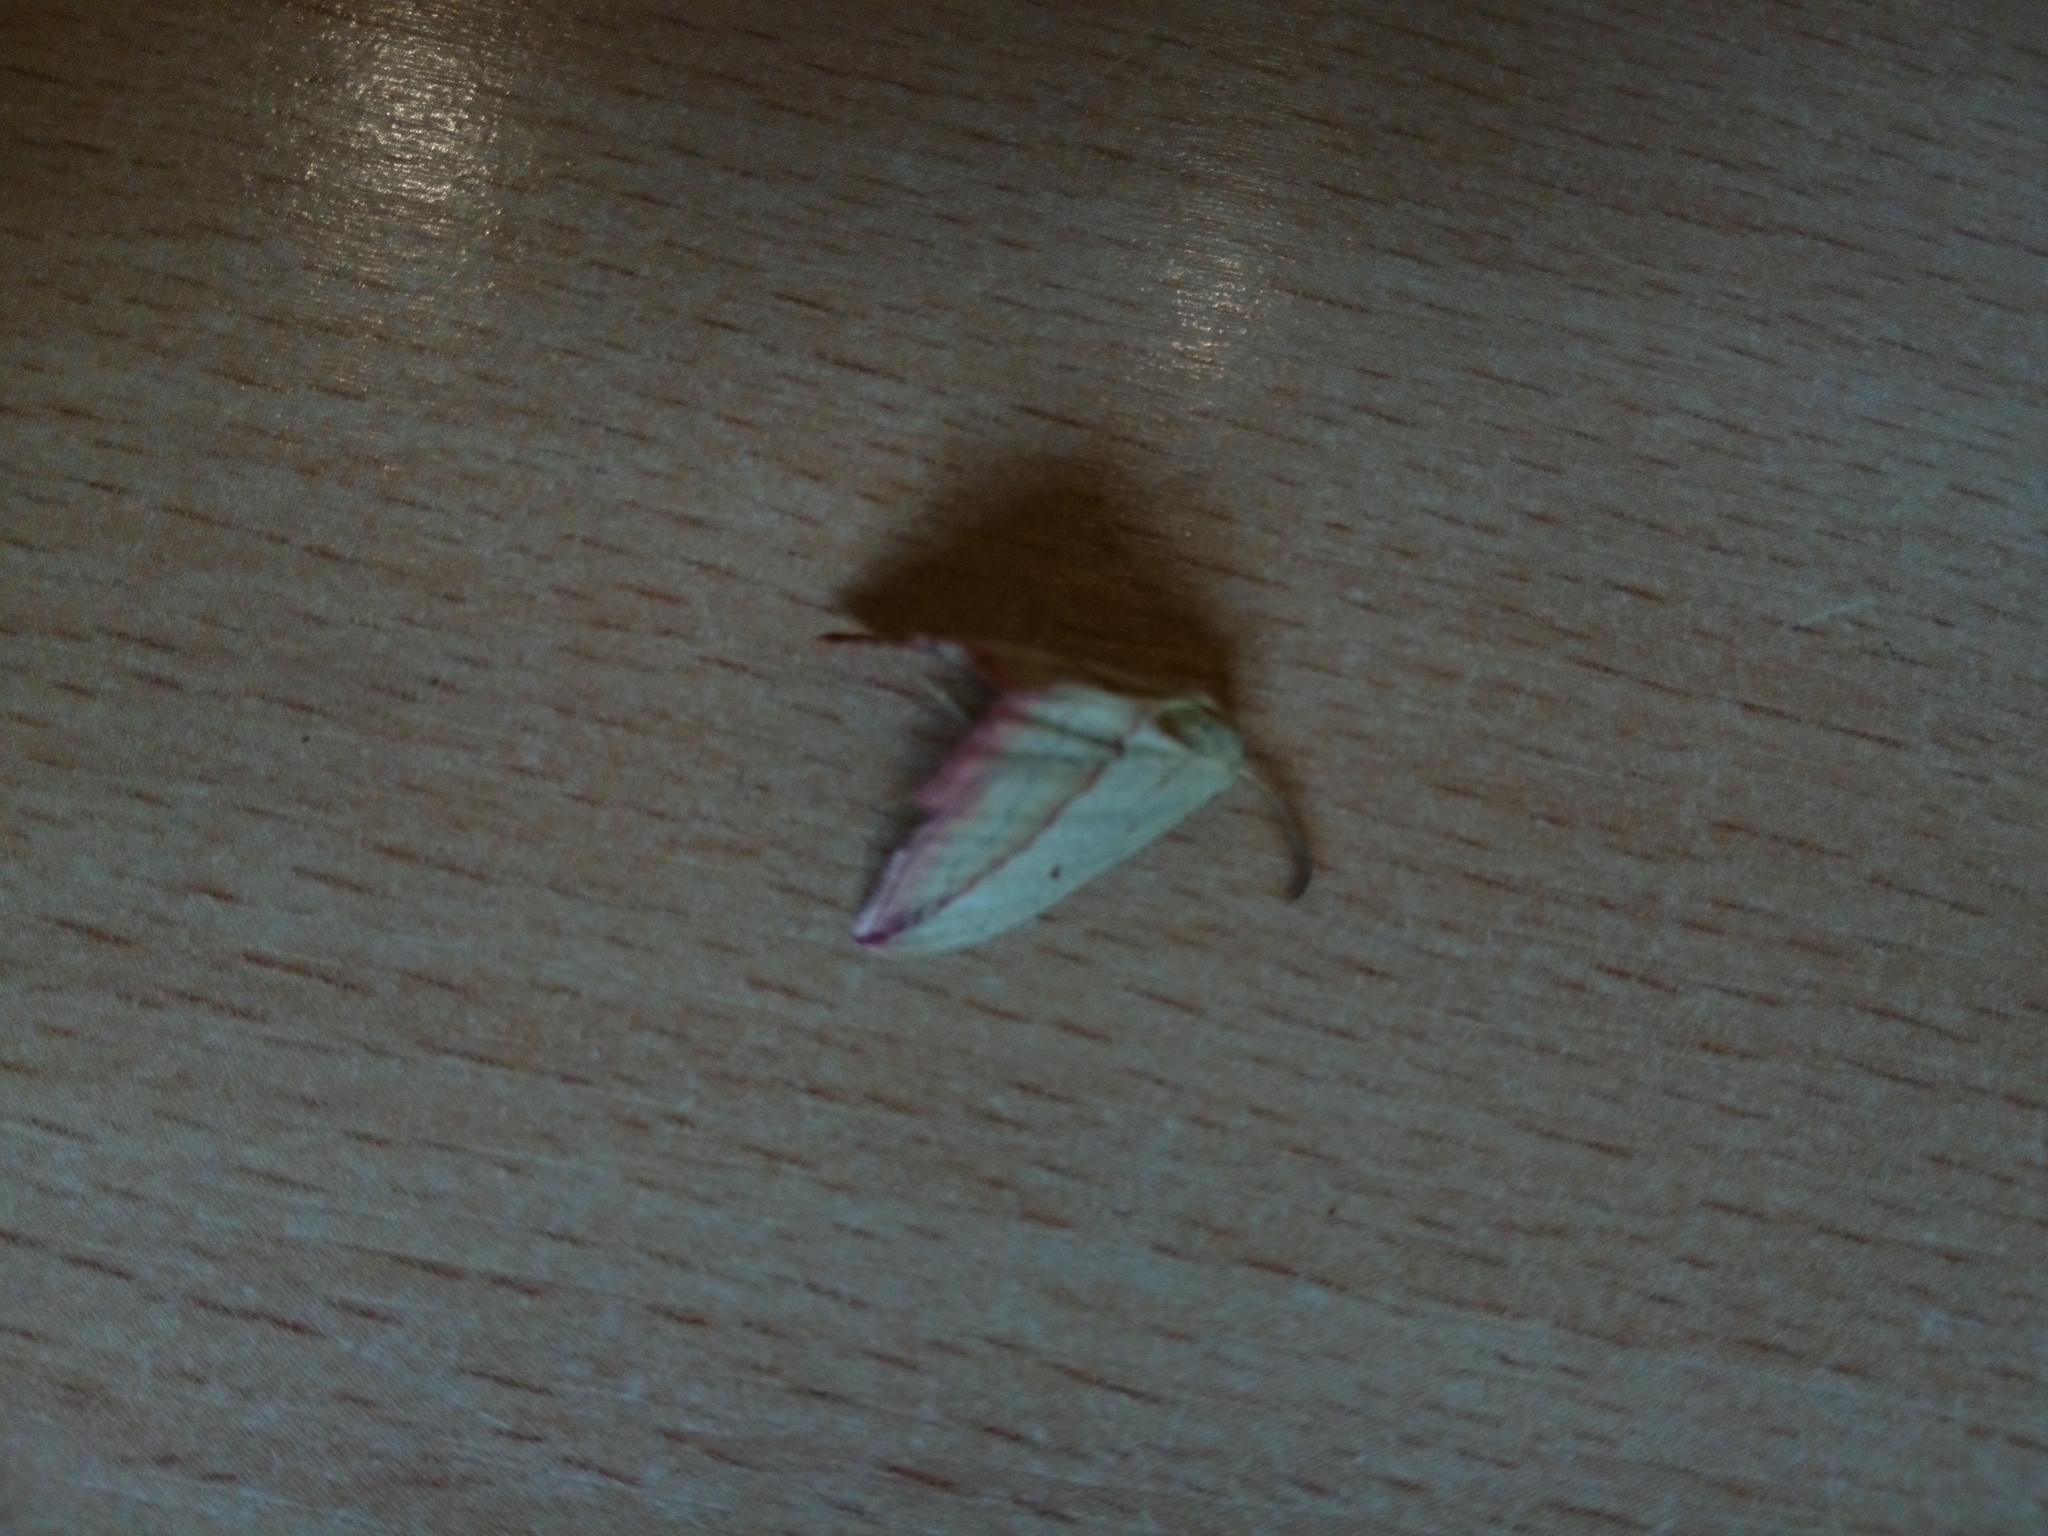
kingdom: Animalia
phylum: Arthropoda
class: Insecta
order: Lepidoptera
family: Geometridae
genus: Timandra
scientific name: Timandra comae
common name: Blood-vein
